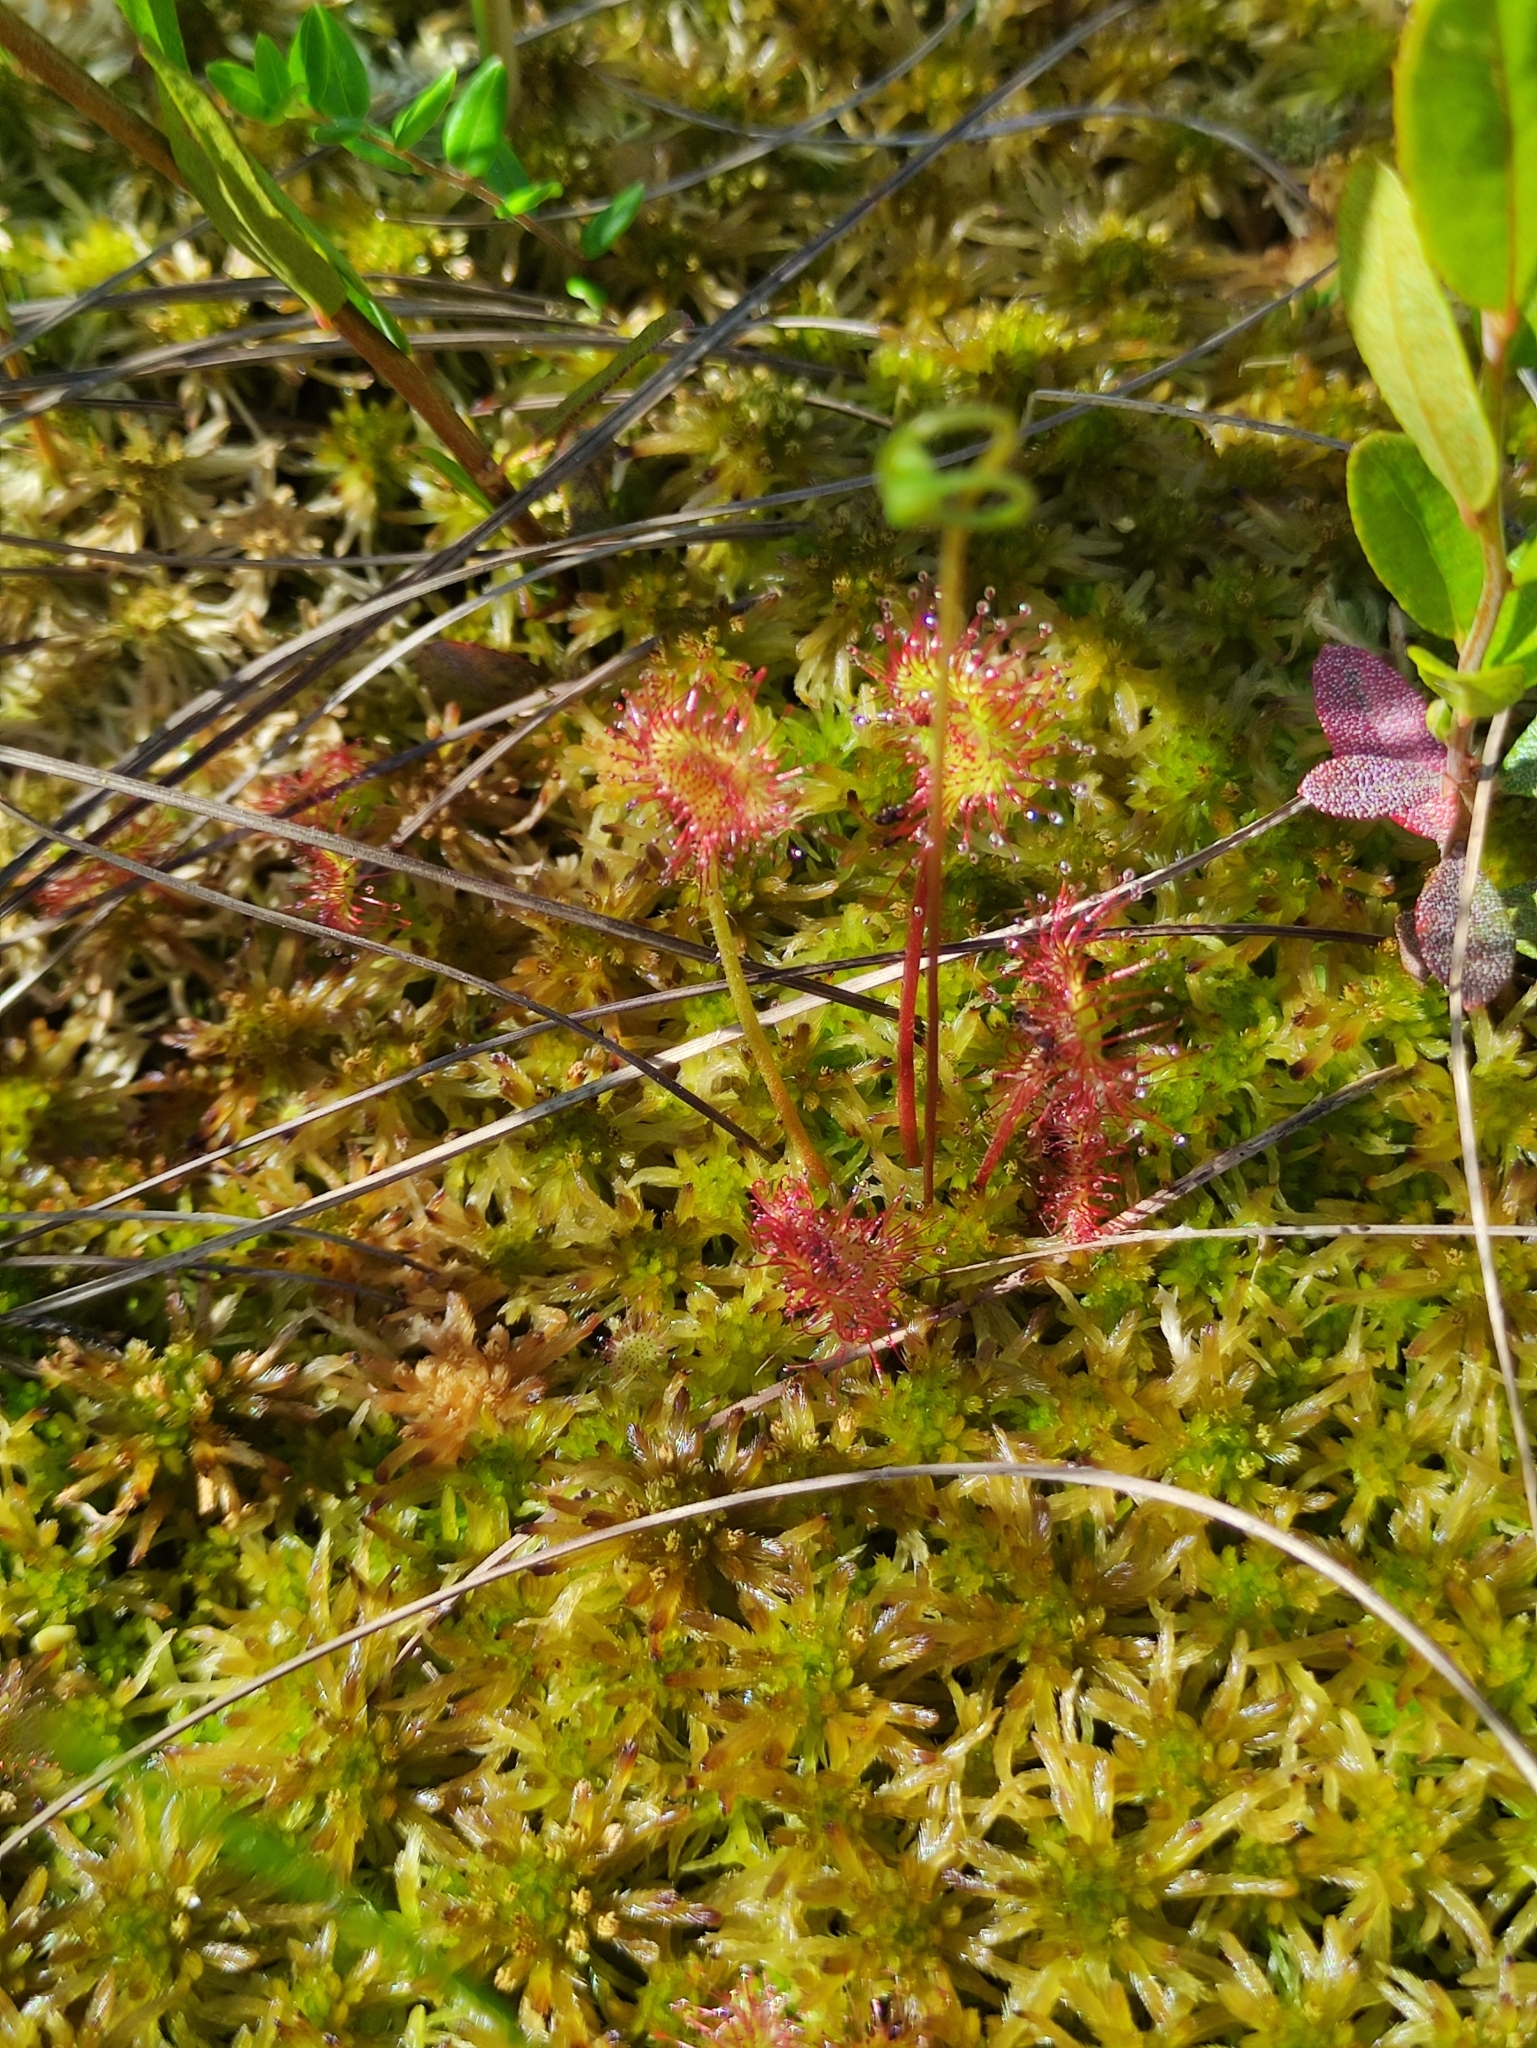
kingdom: Plantae
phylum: Tracheophyta
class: Magnoliopsida
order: Caryophyllales
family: Droseraceae
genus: Drosera
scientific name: Drosera rotundifolia
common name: Round-leaved sundew
